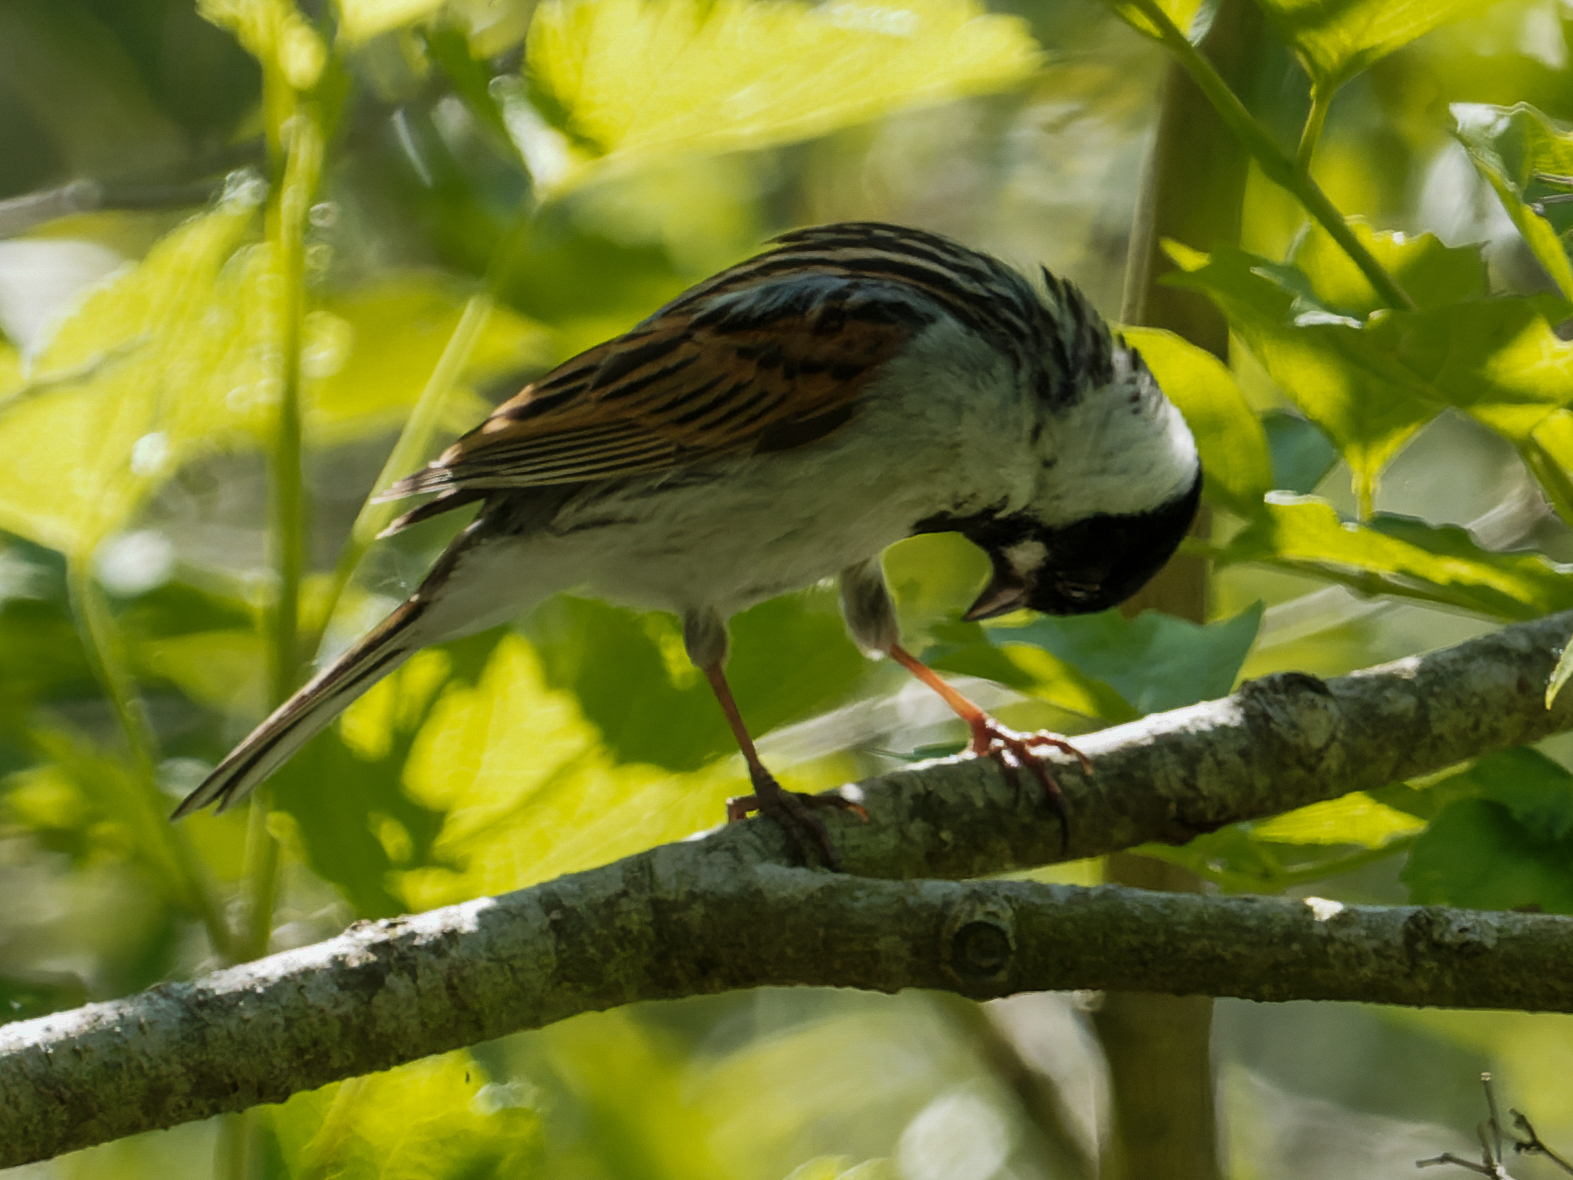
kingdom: Animalia
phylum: Chordata
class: Aves
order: Passeriformes
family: Emberizidae
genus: Emberiza
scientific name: Emberiza schoeniclus
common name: Reed bunting
